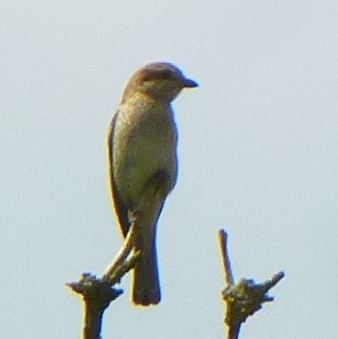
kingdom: Animalia
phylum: Chordata
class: Aves
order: Passeriformes
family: Laniidae
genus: Lanius
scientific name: Lanius collurio
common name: Red-backed shrike
